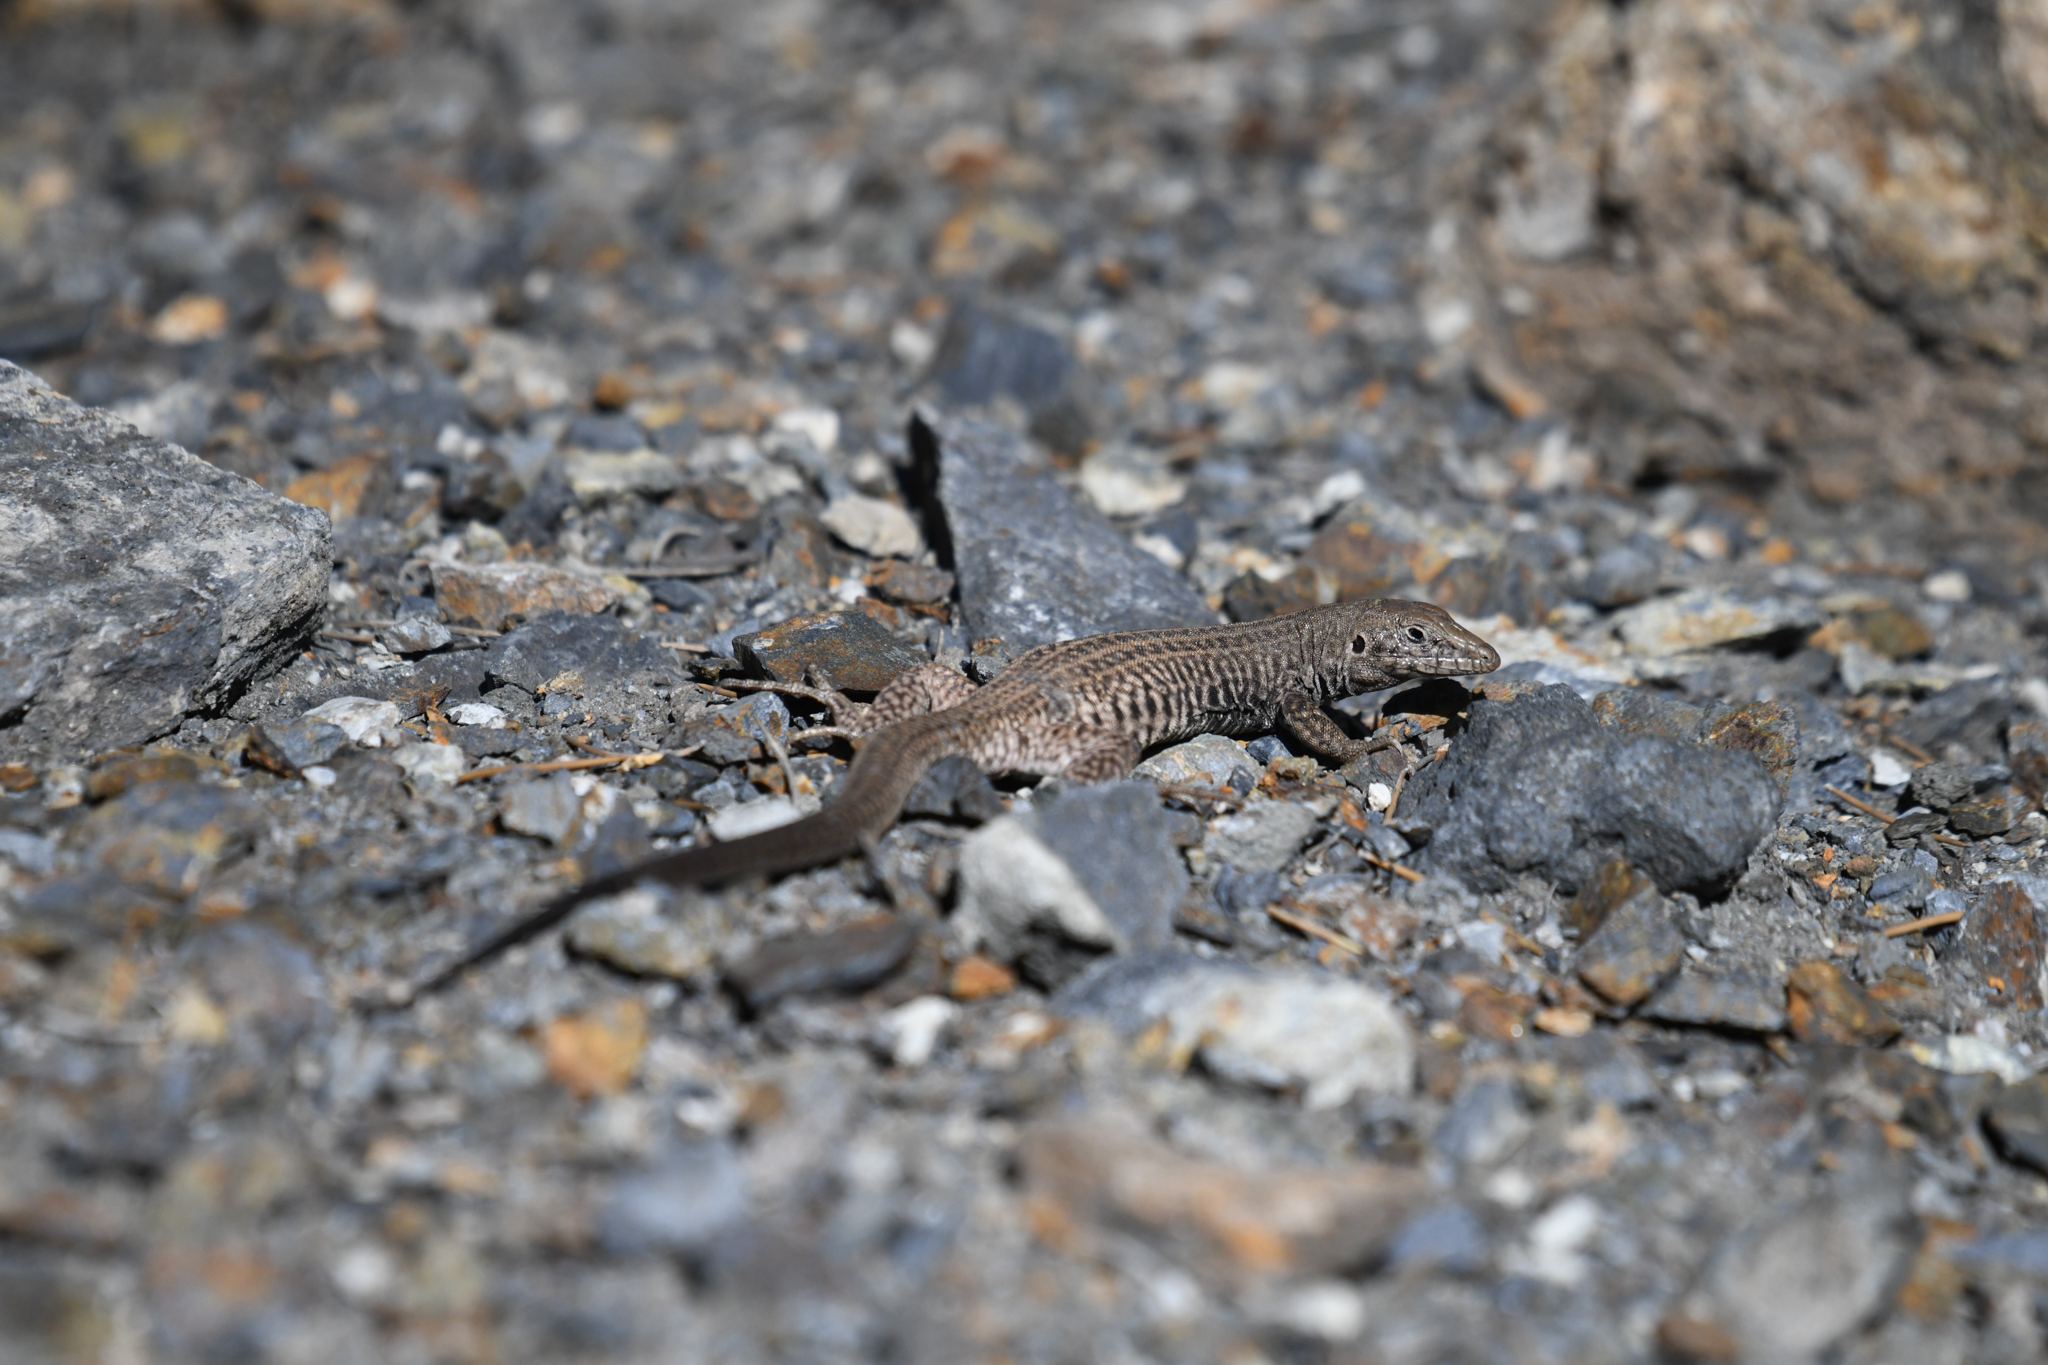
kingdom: Animalia
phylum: Chordata
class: Squamata
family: Teiidae
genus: Aspidoscelis
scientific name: Aspidoscelis tigris
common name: Tiger whiptail
